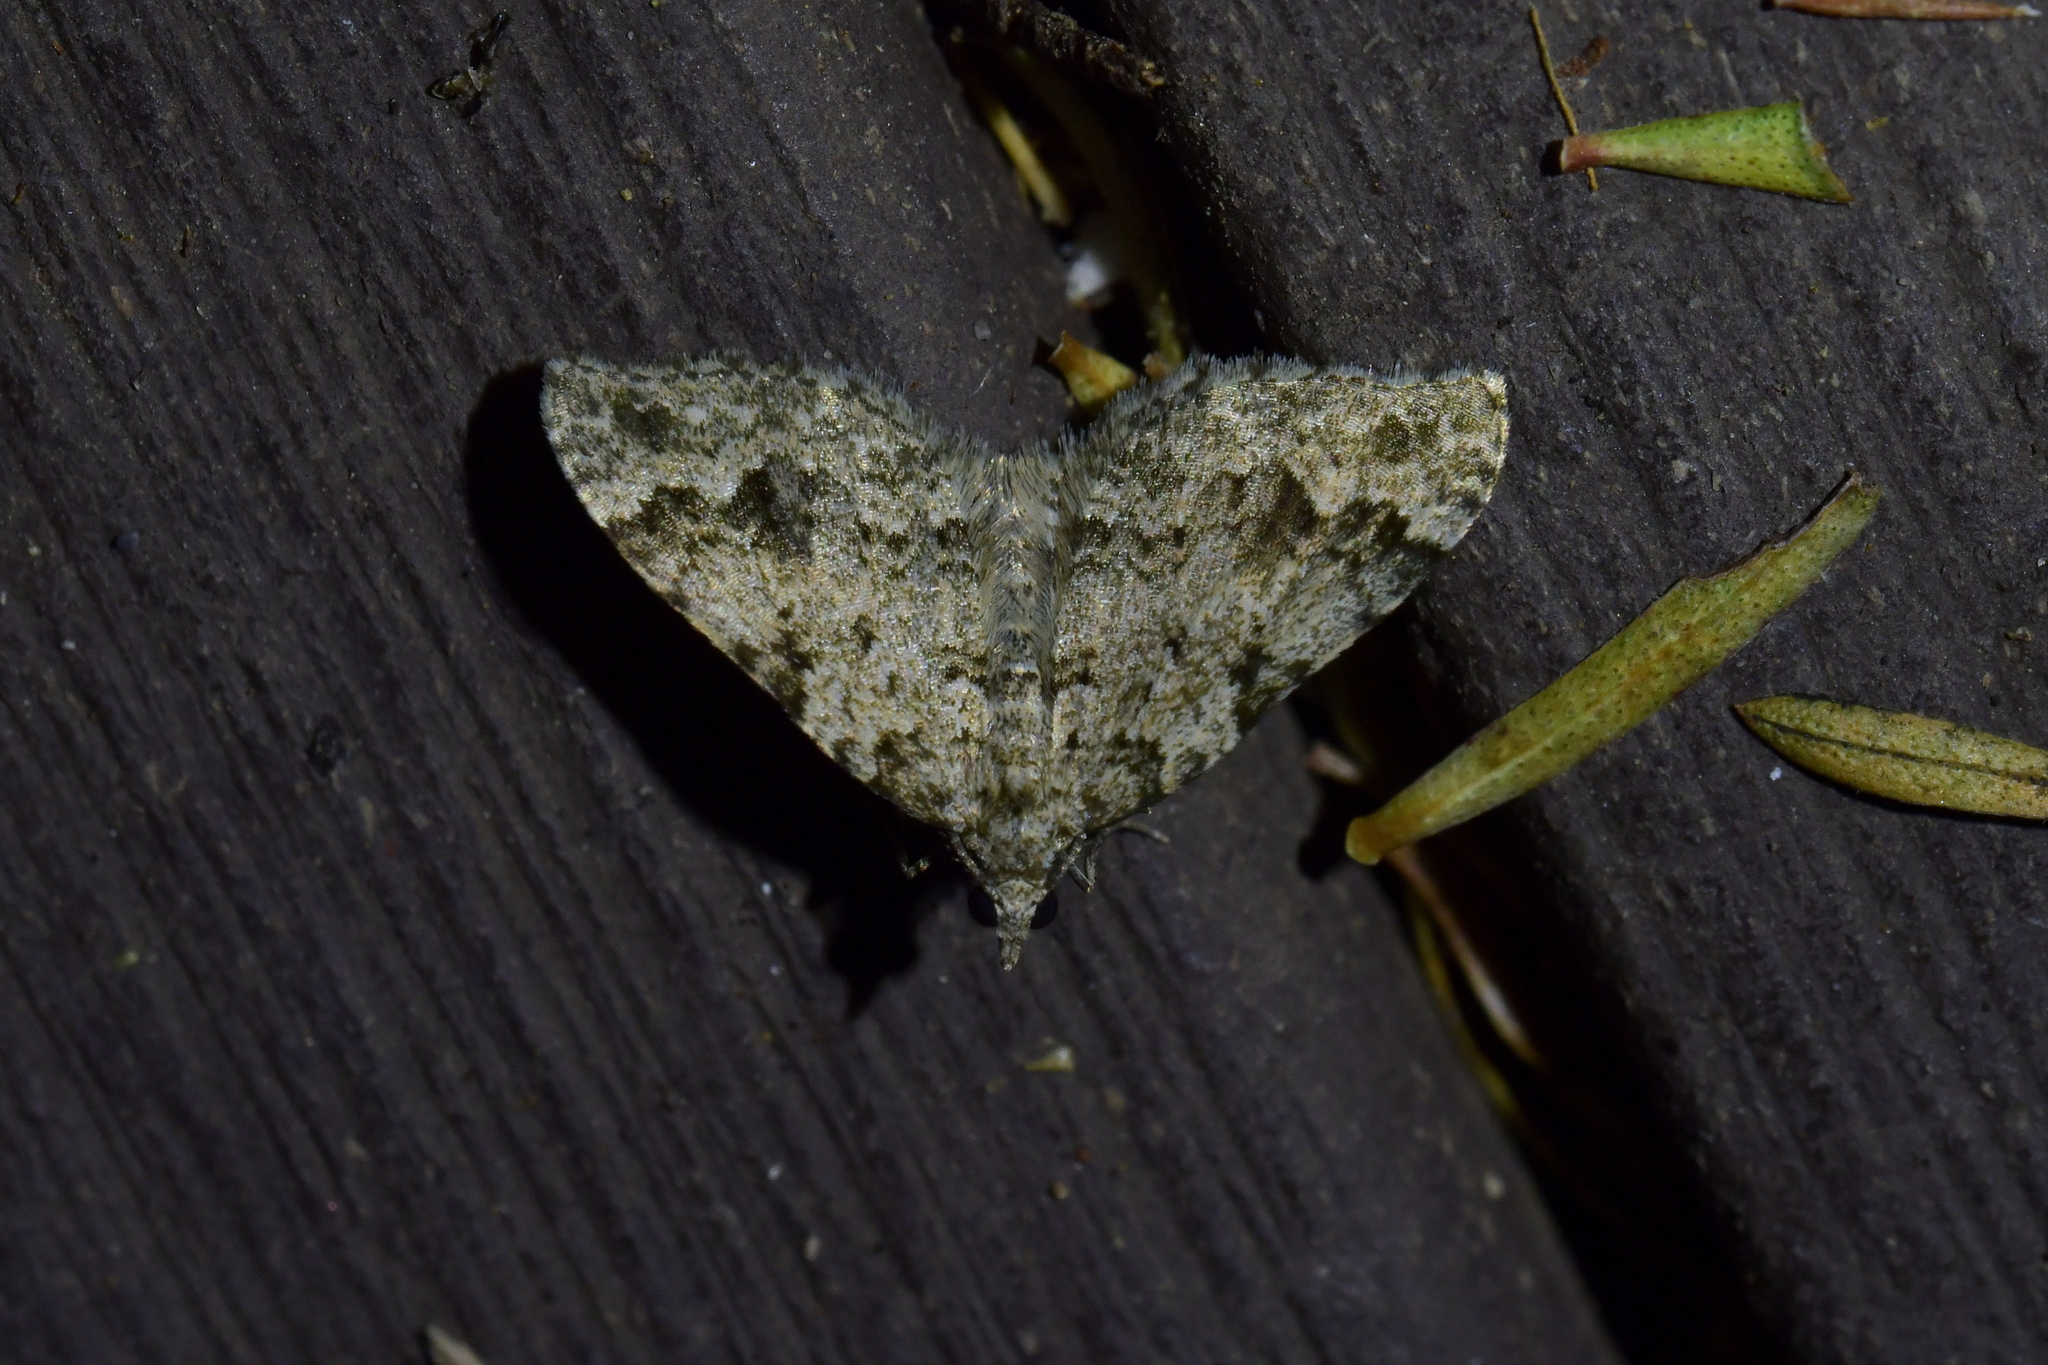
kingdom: Animalia
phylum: Arthropoda
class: Insecta
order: Lepidoptera
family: Geometridae
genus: Helastia
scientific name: Helastia cinerearia
